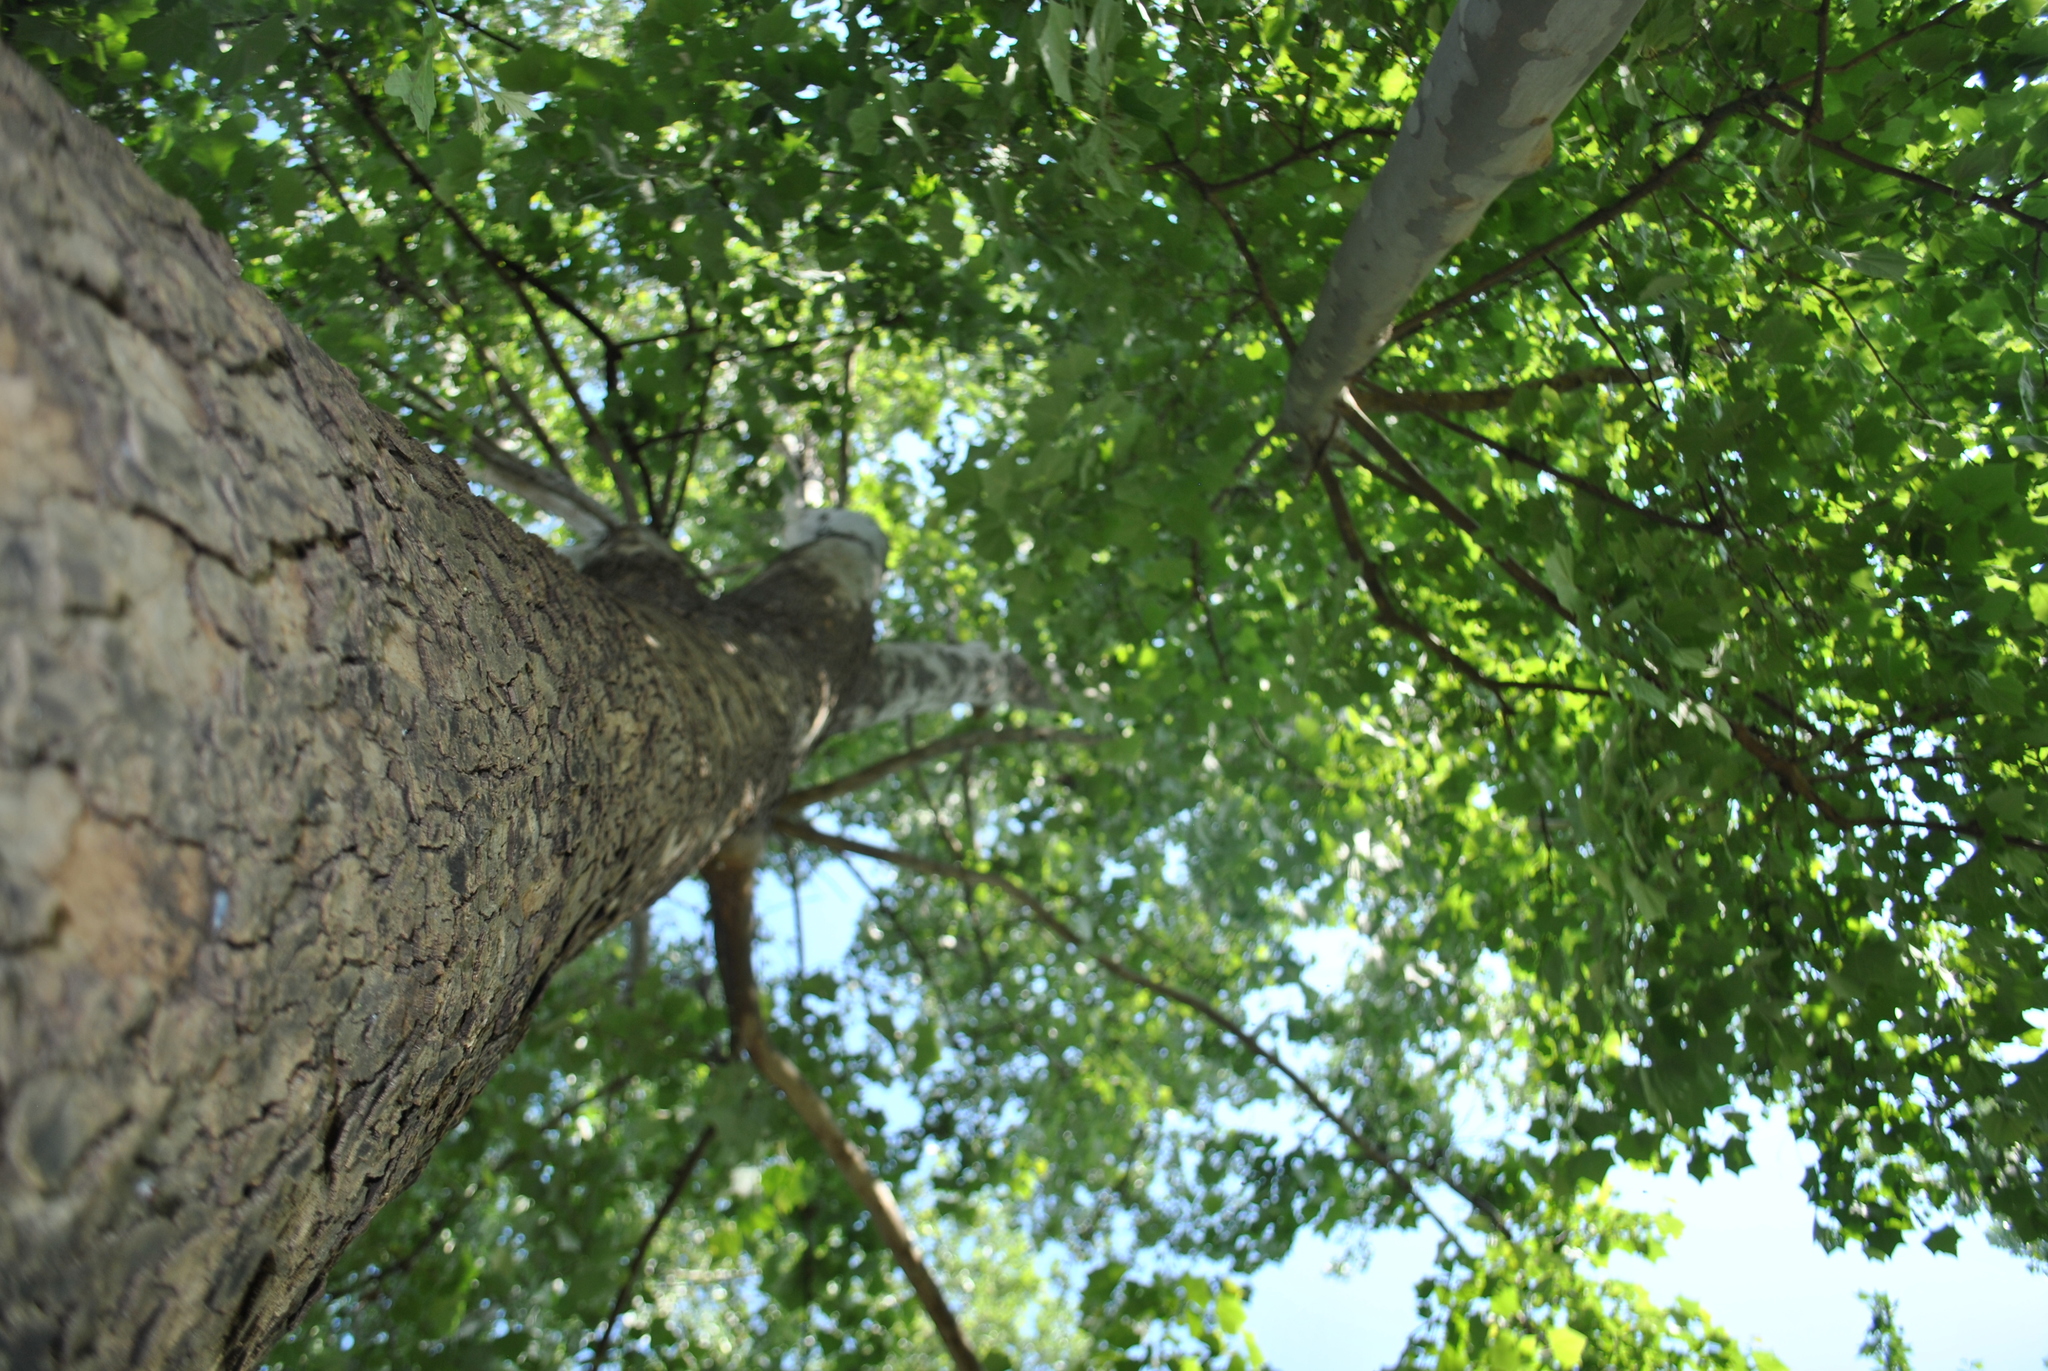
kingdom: Plantae
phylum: Tracheophyta
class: Magnoliopsida
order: Proteales
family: Platanaceae
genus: Platanus
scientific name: Platanus occidentalis
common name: American sycamore
